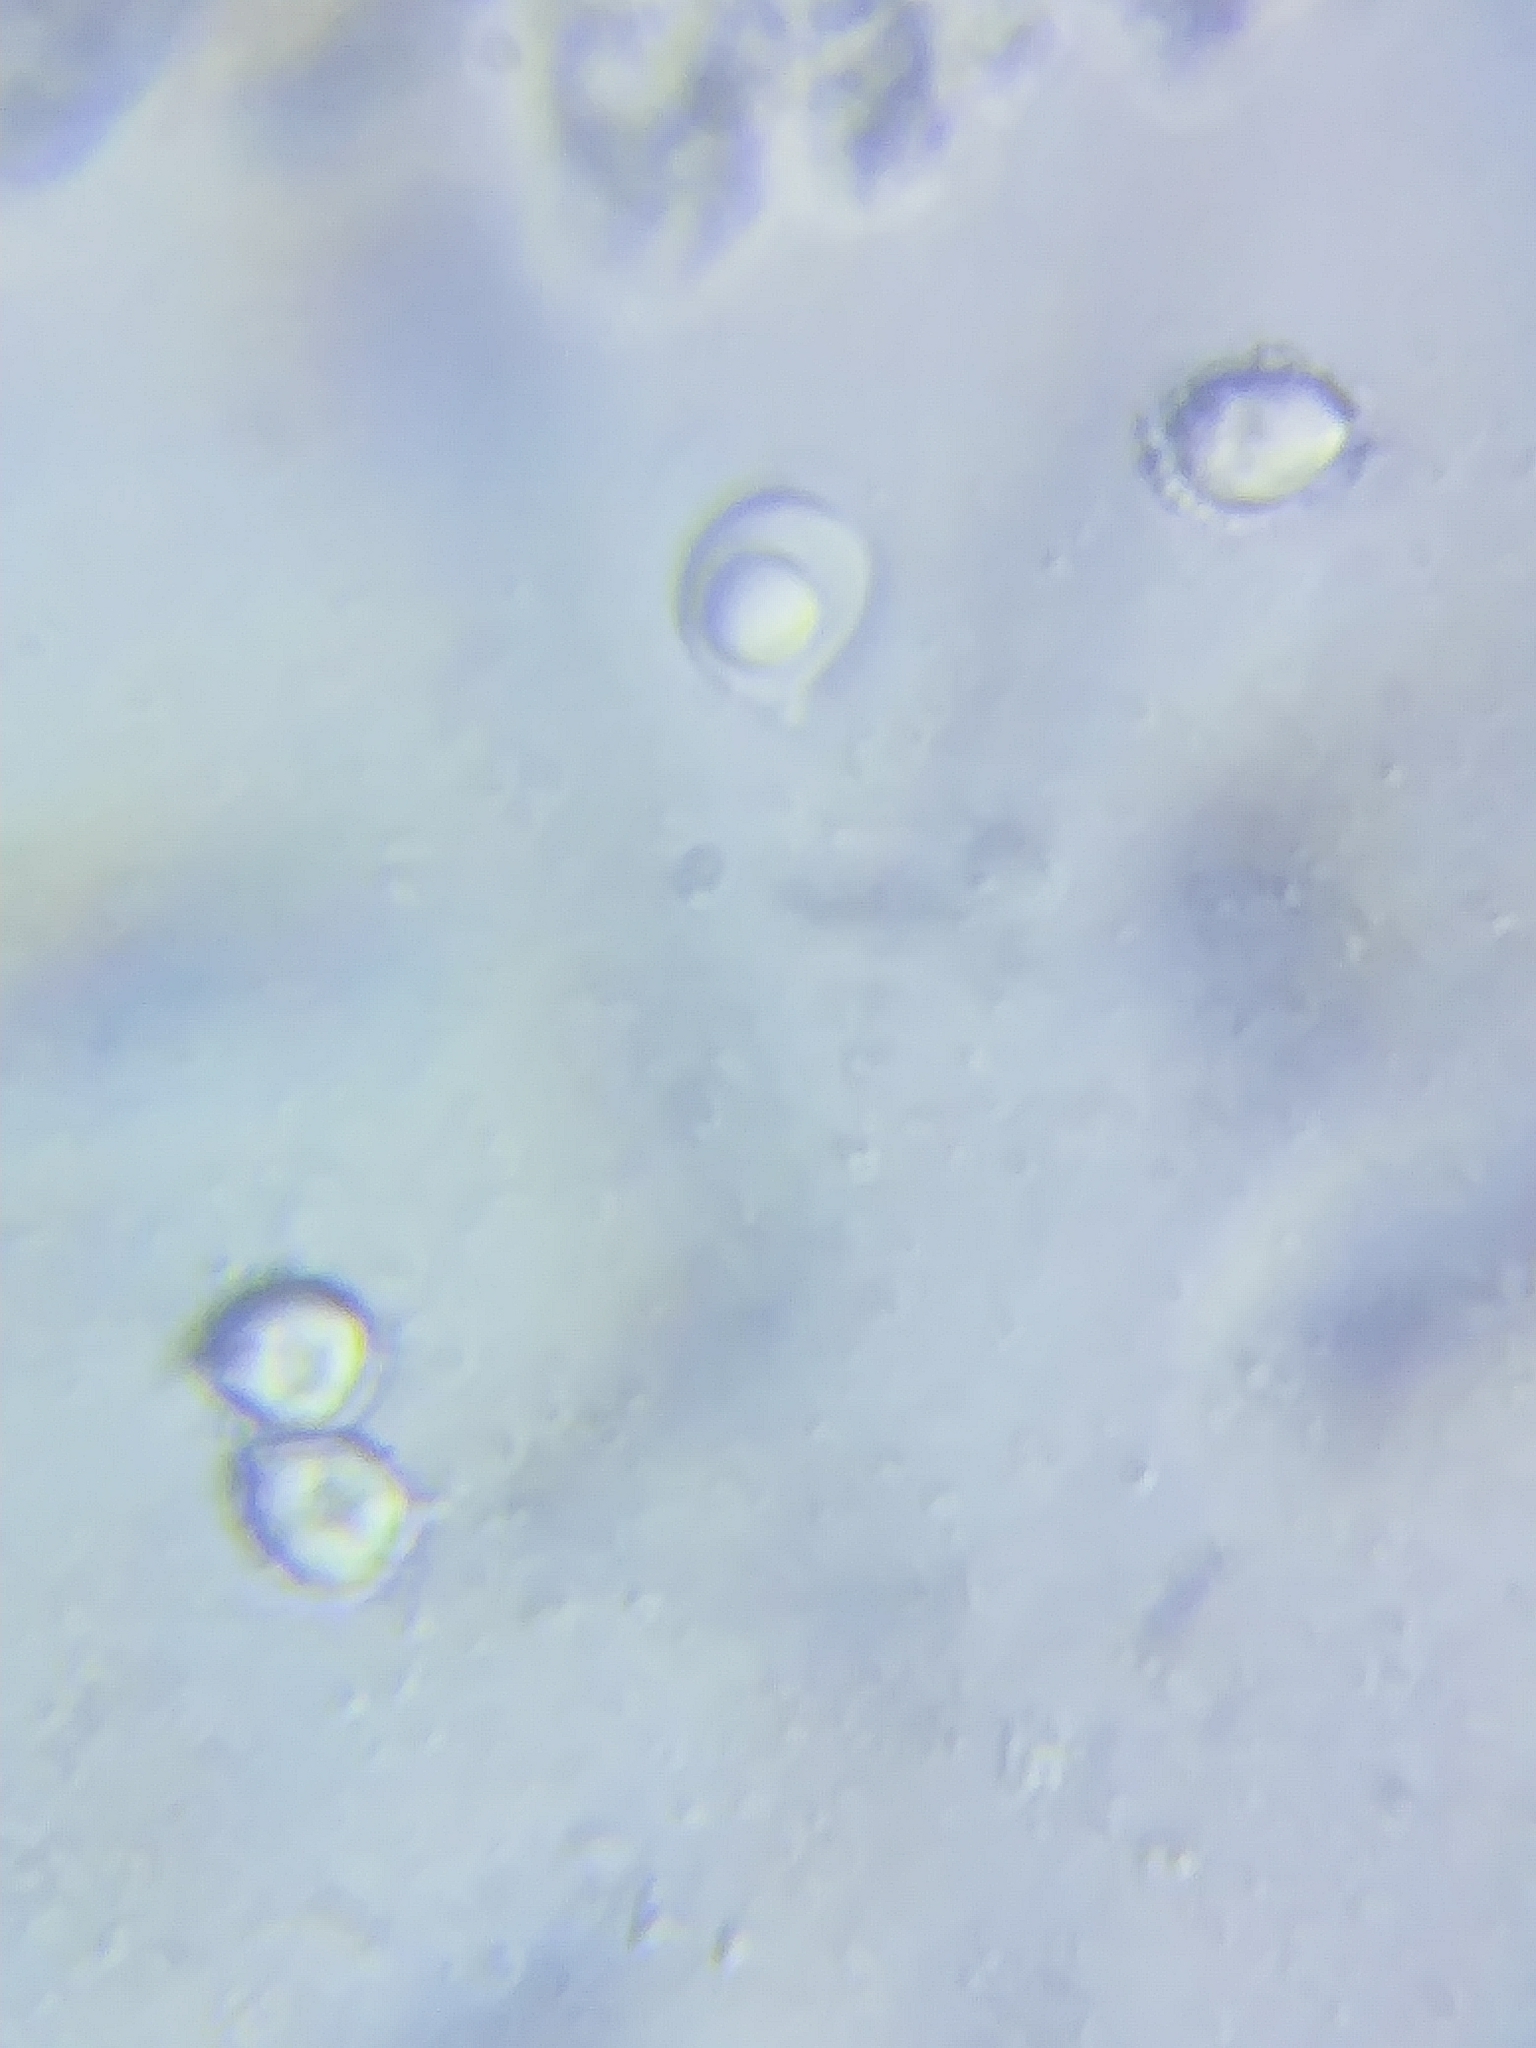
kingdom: Fungi
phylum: Basidiomycota
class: Agaricomycetes
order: Agaricales
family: Tricholomataceae
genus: Tricholoma
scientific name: Tricholoma subluteum
